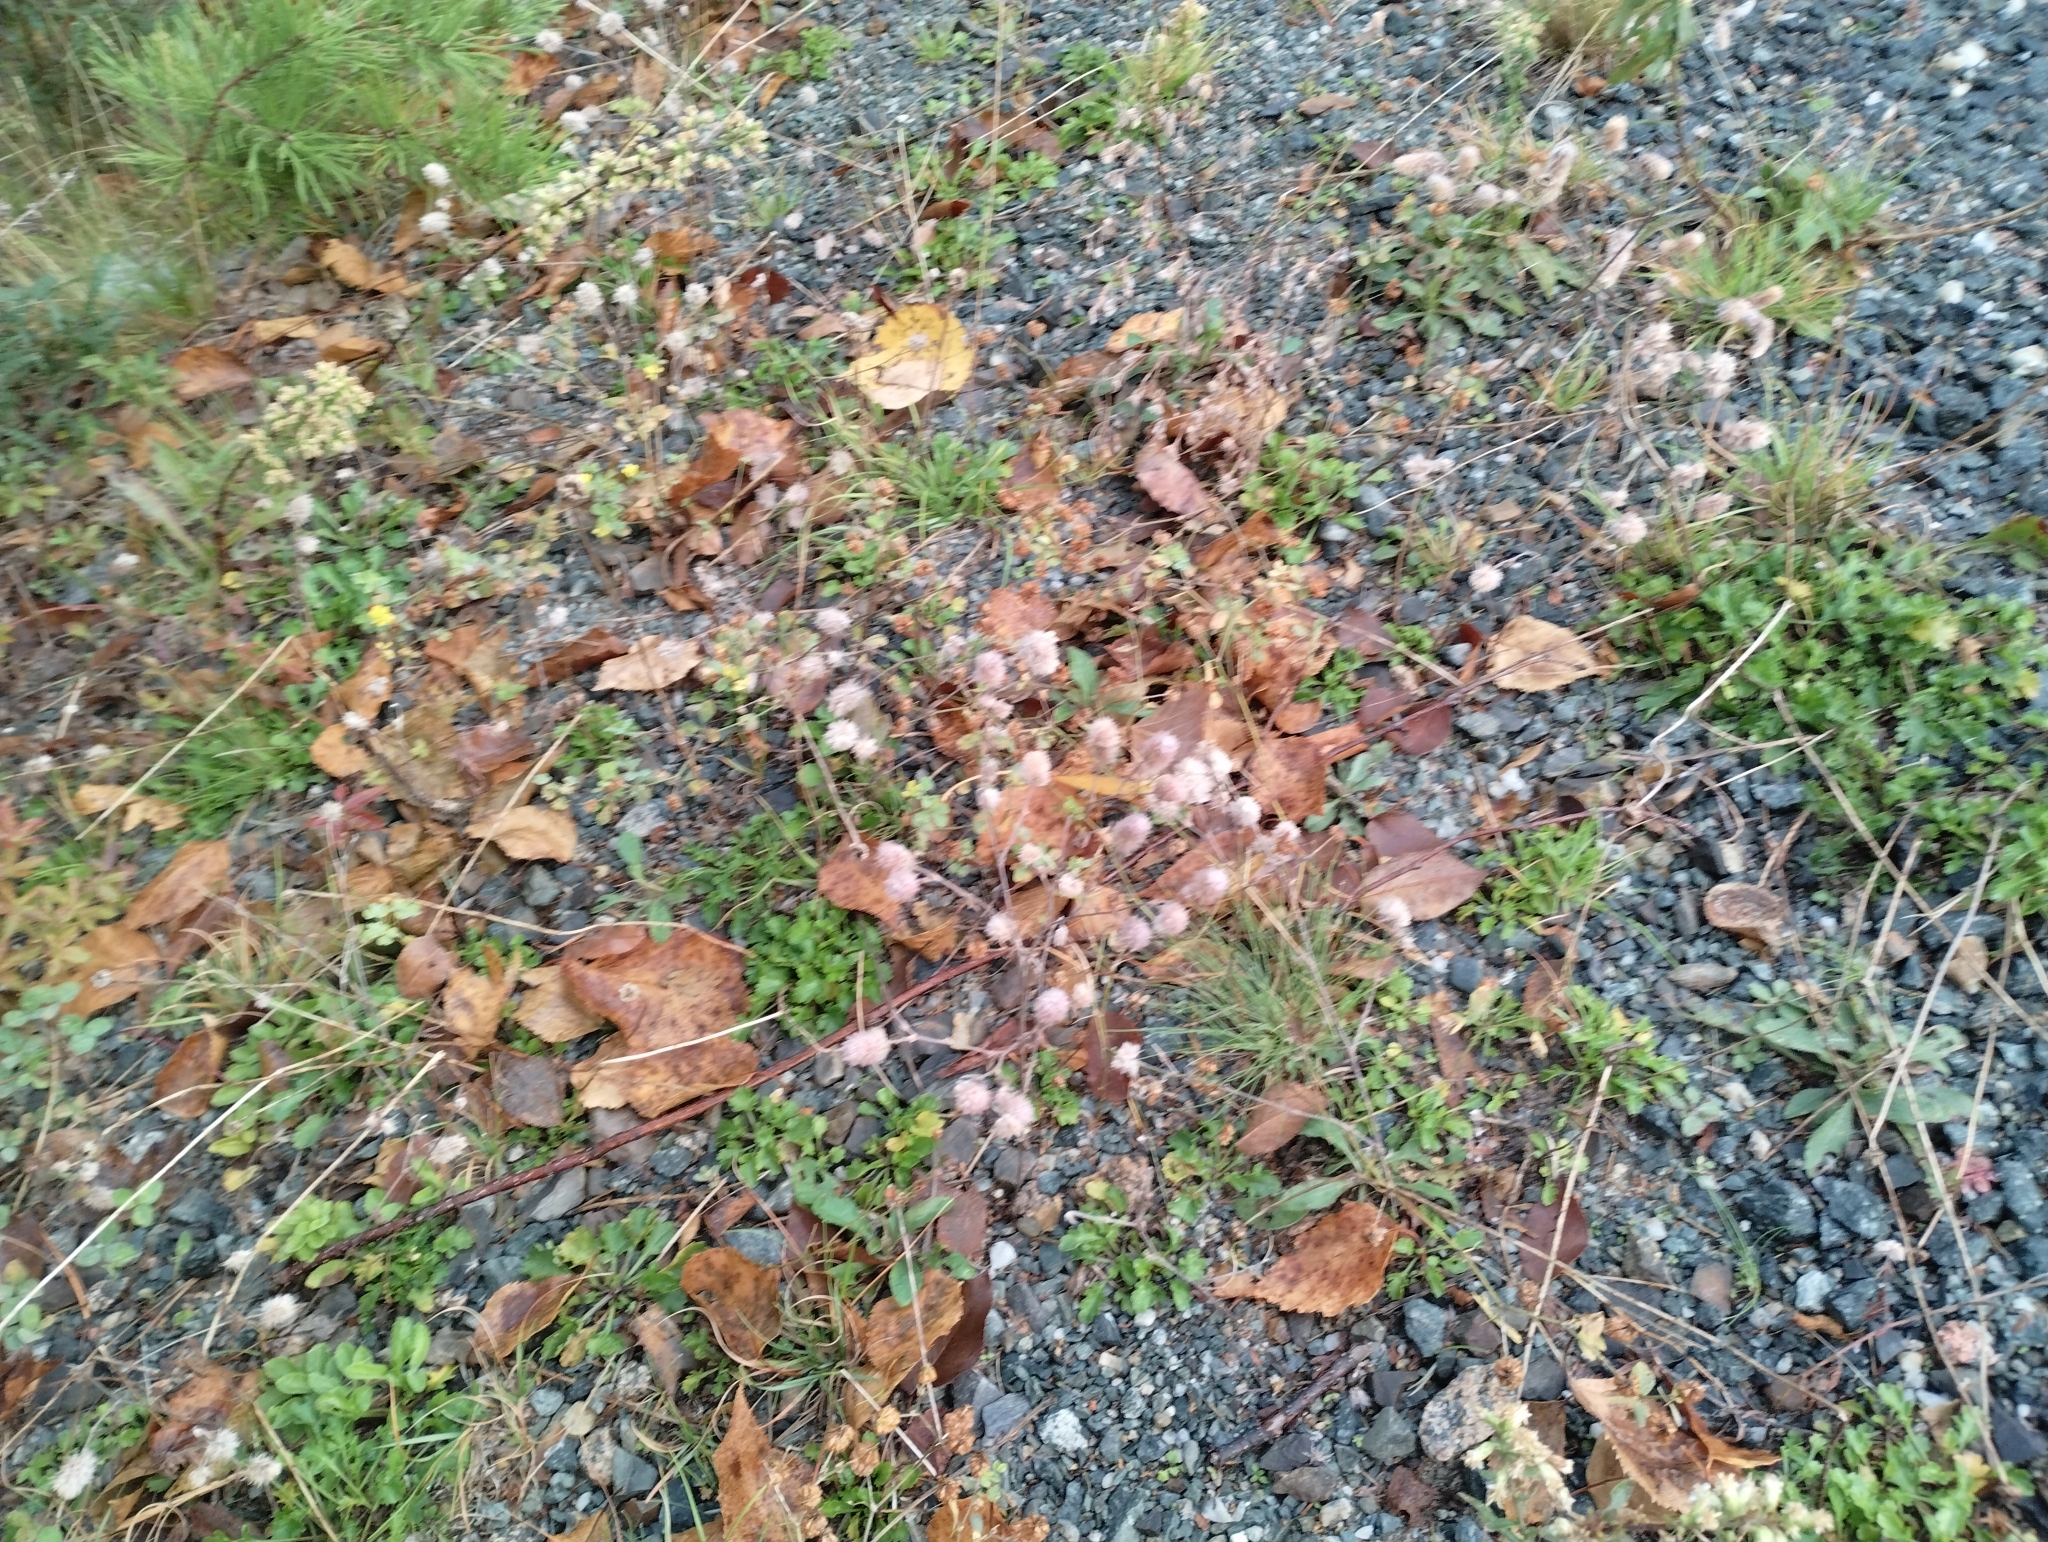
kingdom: Plantae
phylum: Tracheophyta
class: Magnoliopsida
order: Fabales
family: Fabaceae
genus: Trifolium
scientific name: Trifolium arvense
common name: Hare's-foot clover
